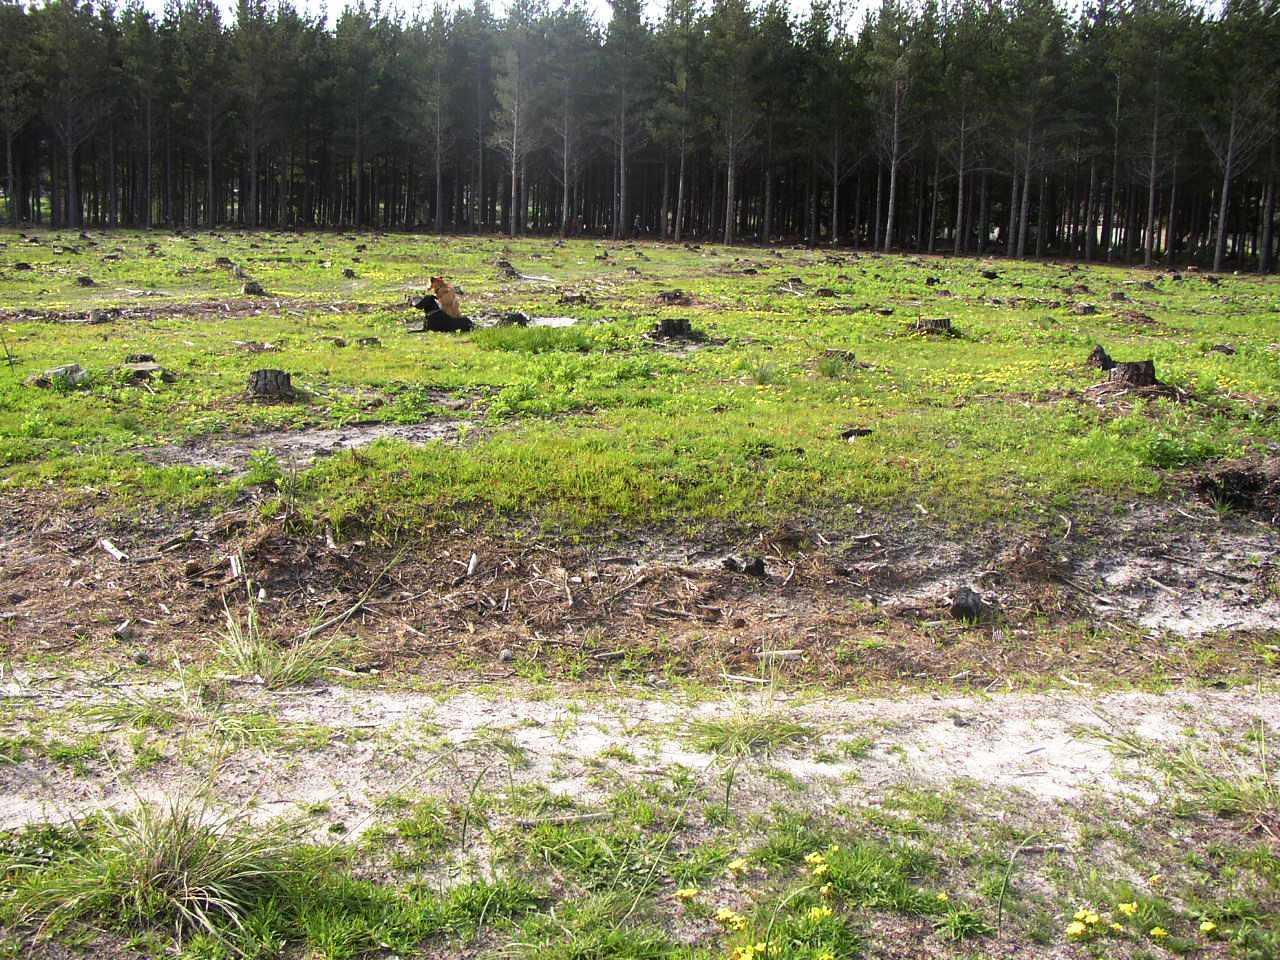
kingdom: Plantae
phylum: Tracheophyta
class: Magnoliopsida
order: Oxalidales
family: Oxalidaceae
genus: Oxalis
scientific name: Oxalis luteola
